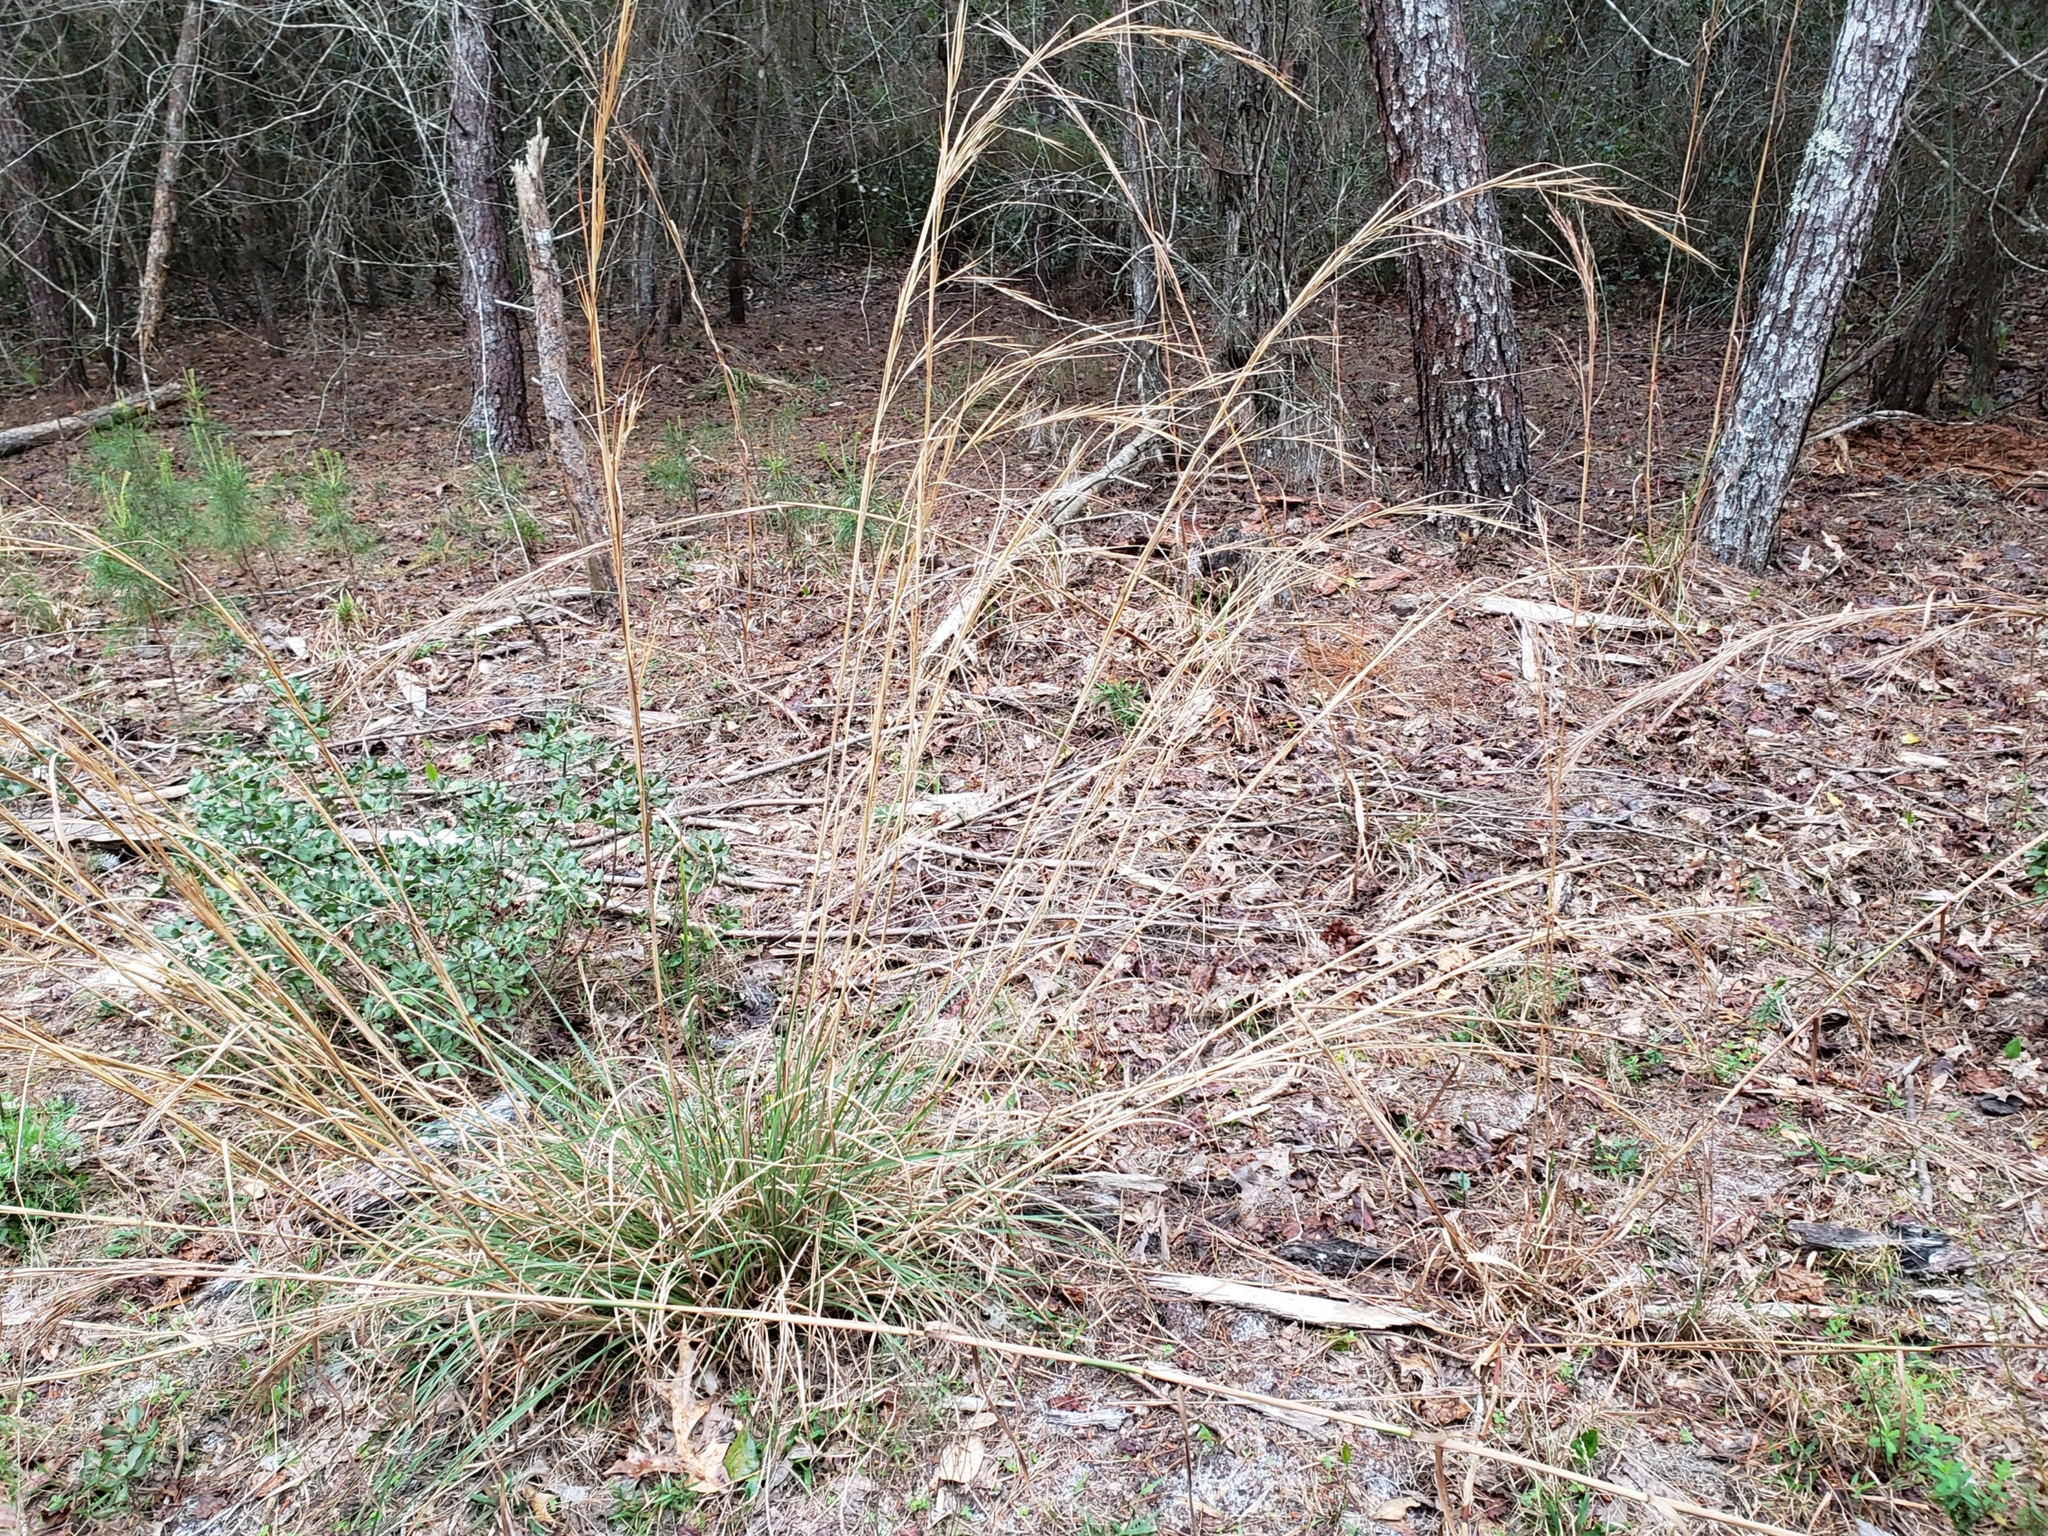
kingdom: Plantae
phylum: Tracheophyta
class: Liliopsida
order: Poales
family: Poaceae
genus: Andropogon
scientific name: Andropogon brachystachyus
